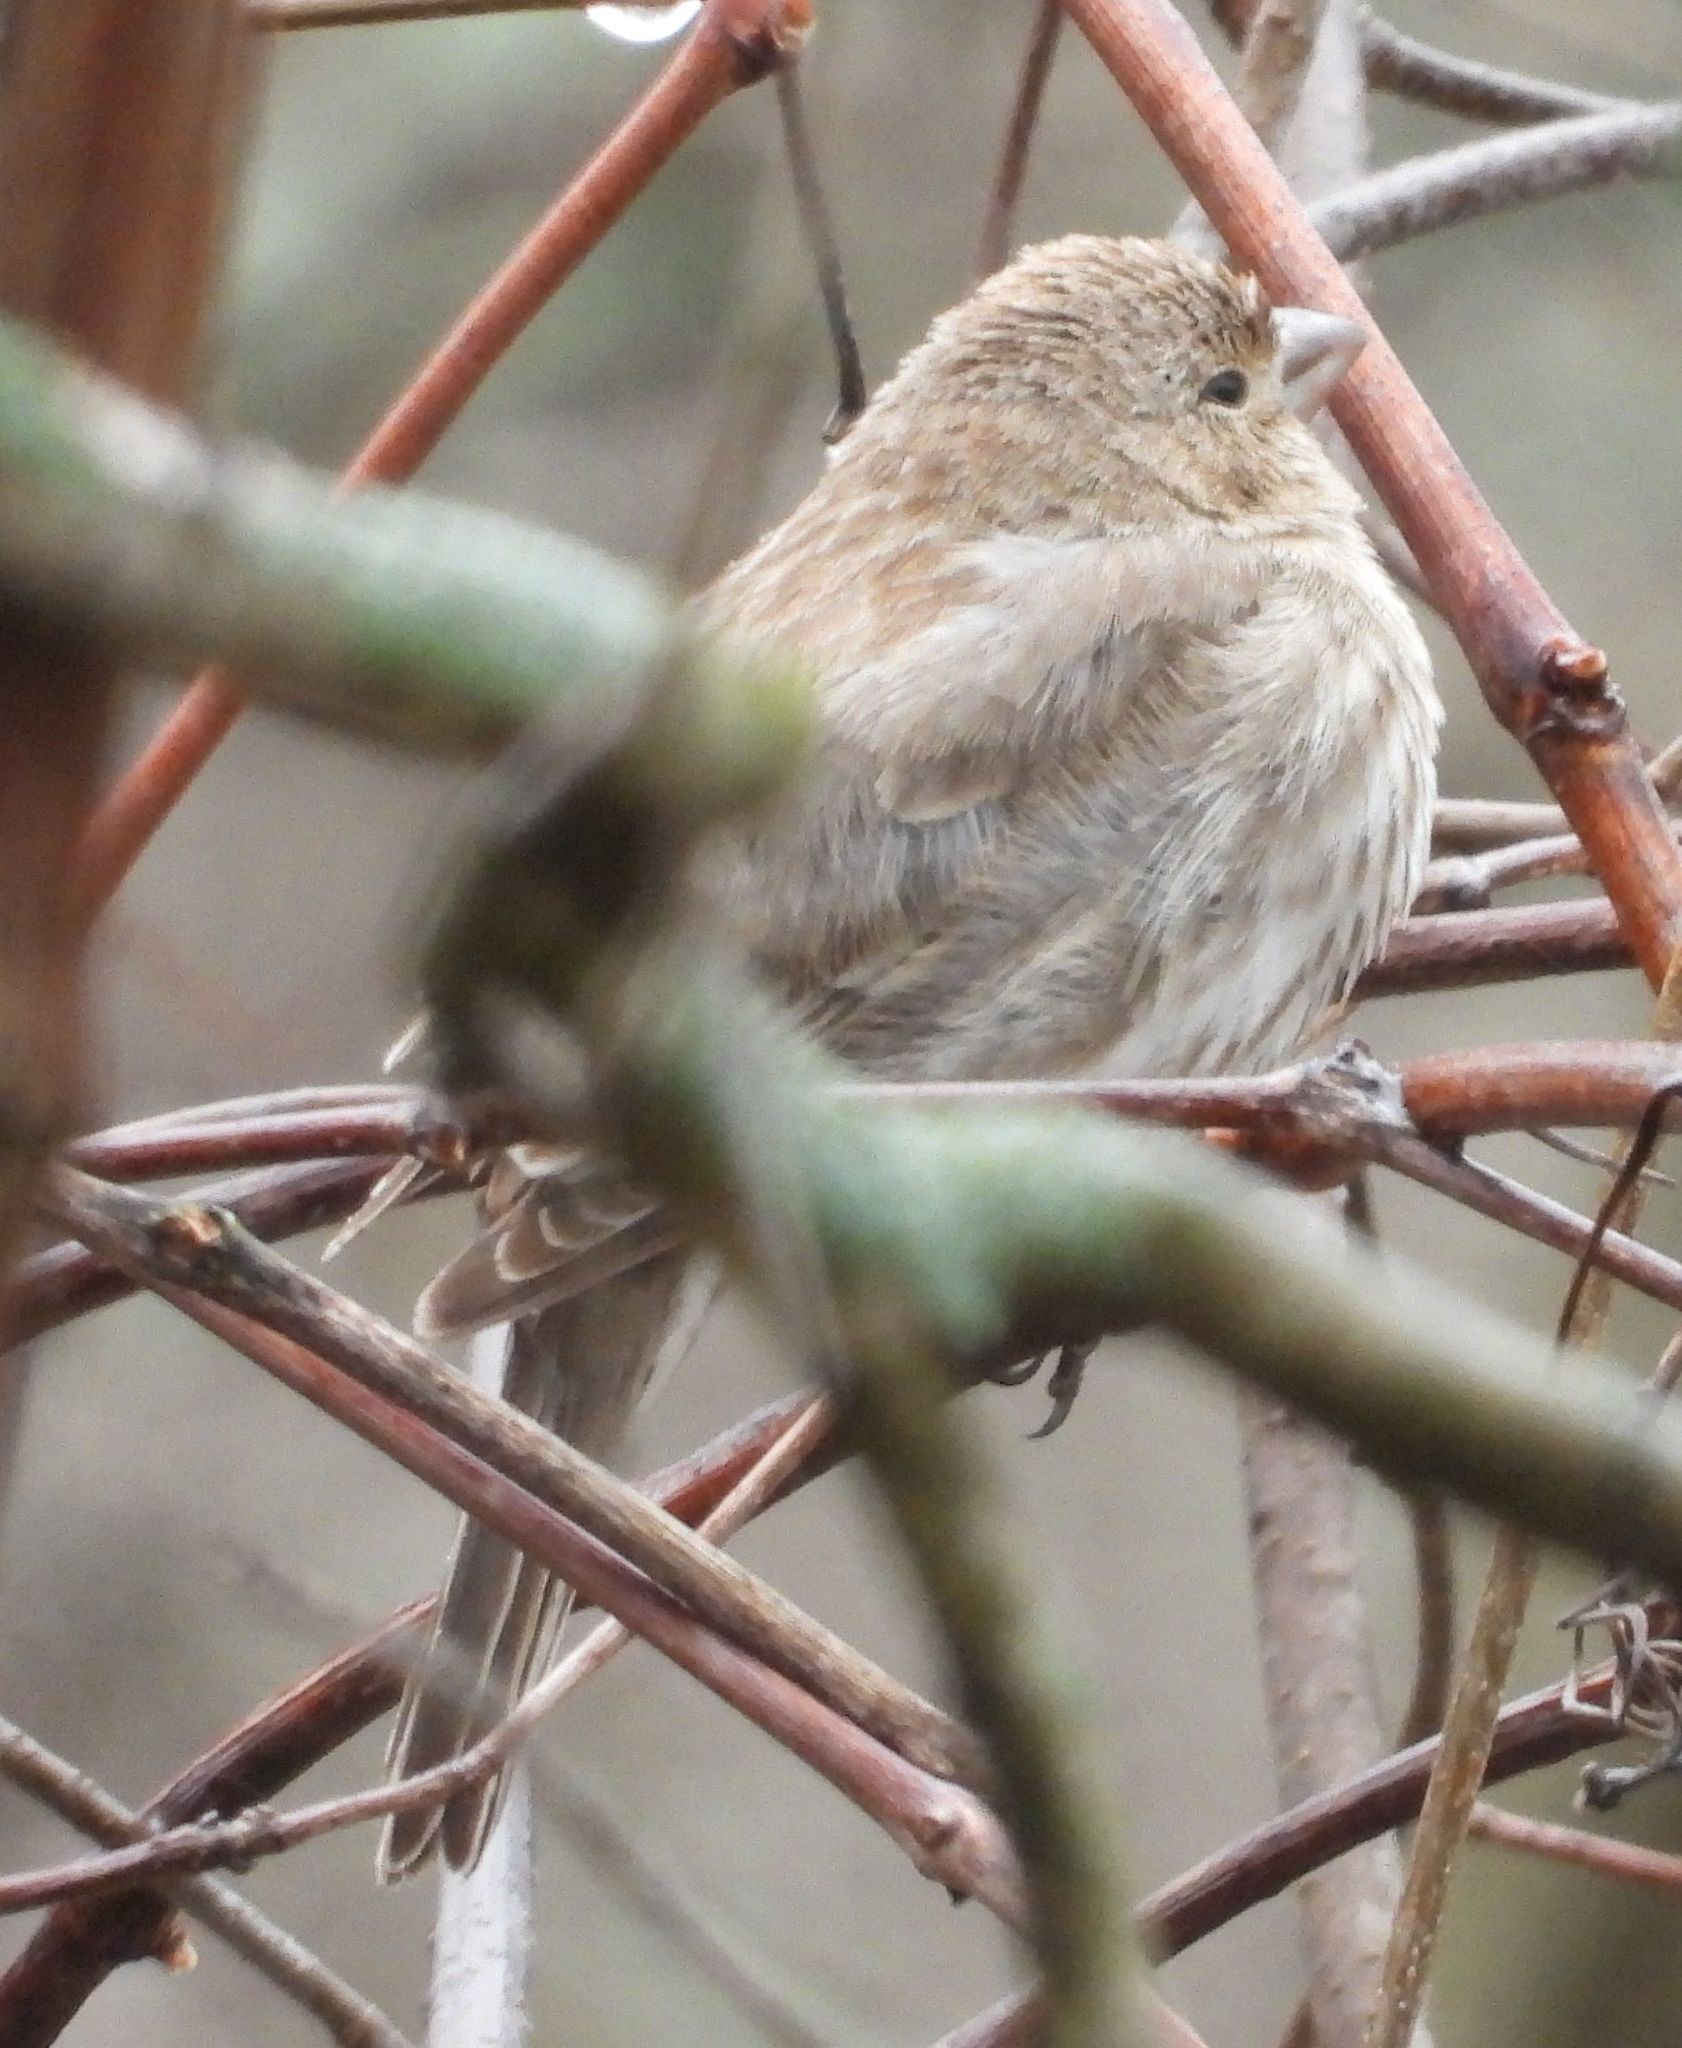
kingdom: Animalia
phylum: Chordata
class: Aves
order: Passeriformes
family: Fringillidae
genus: Haemorhous
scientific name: Haemorhous mexicanus
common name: House finch
